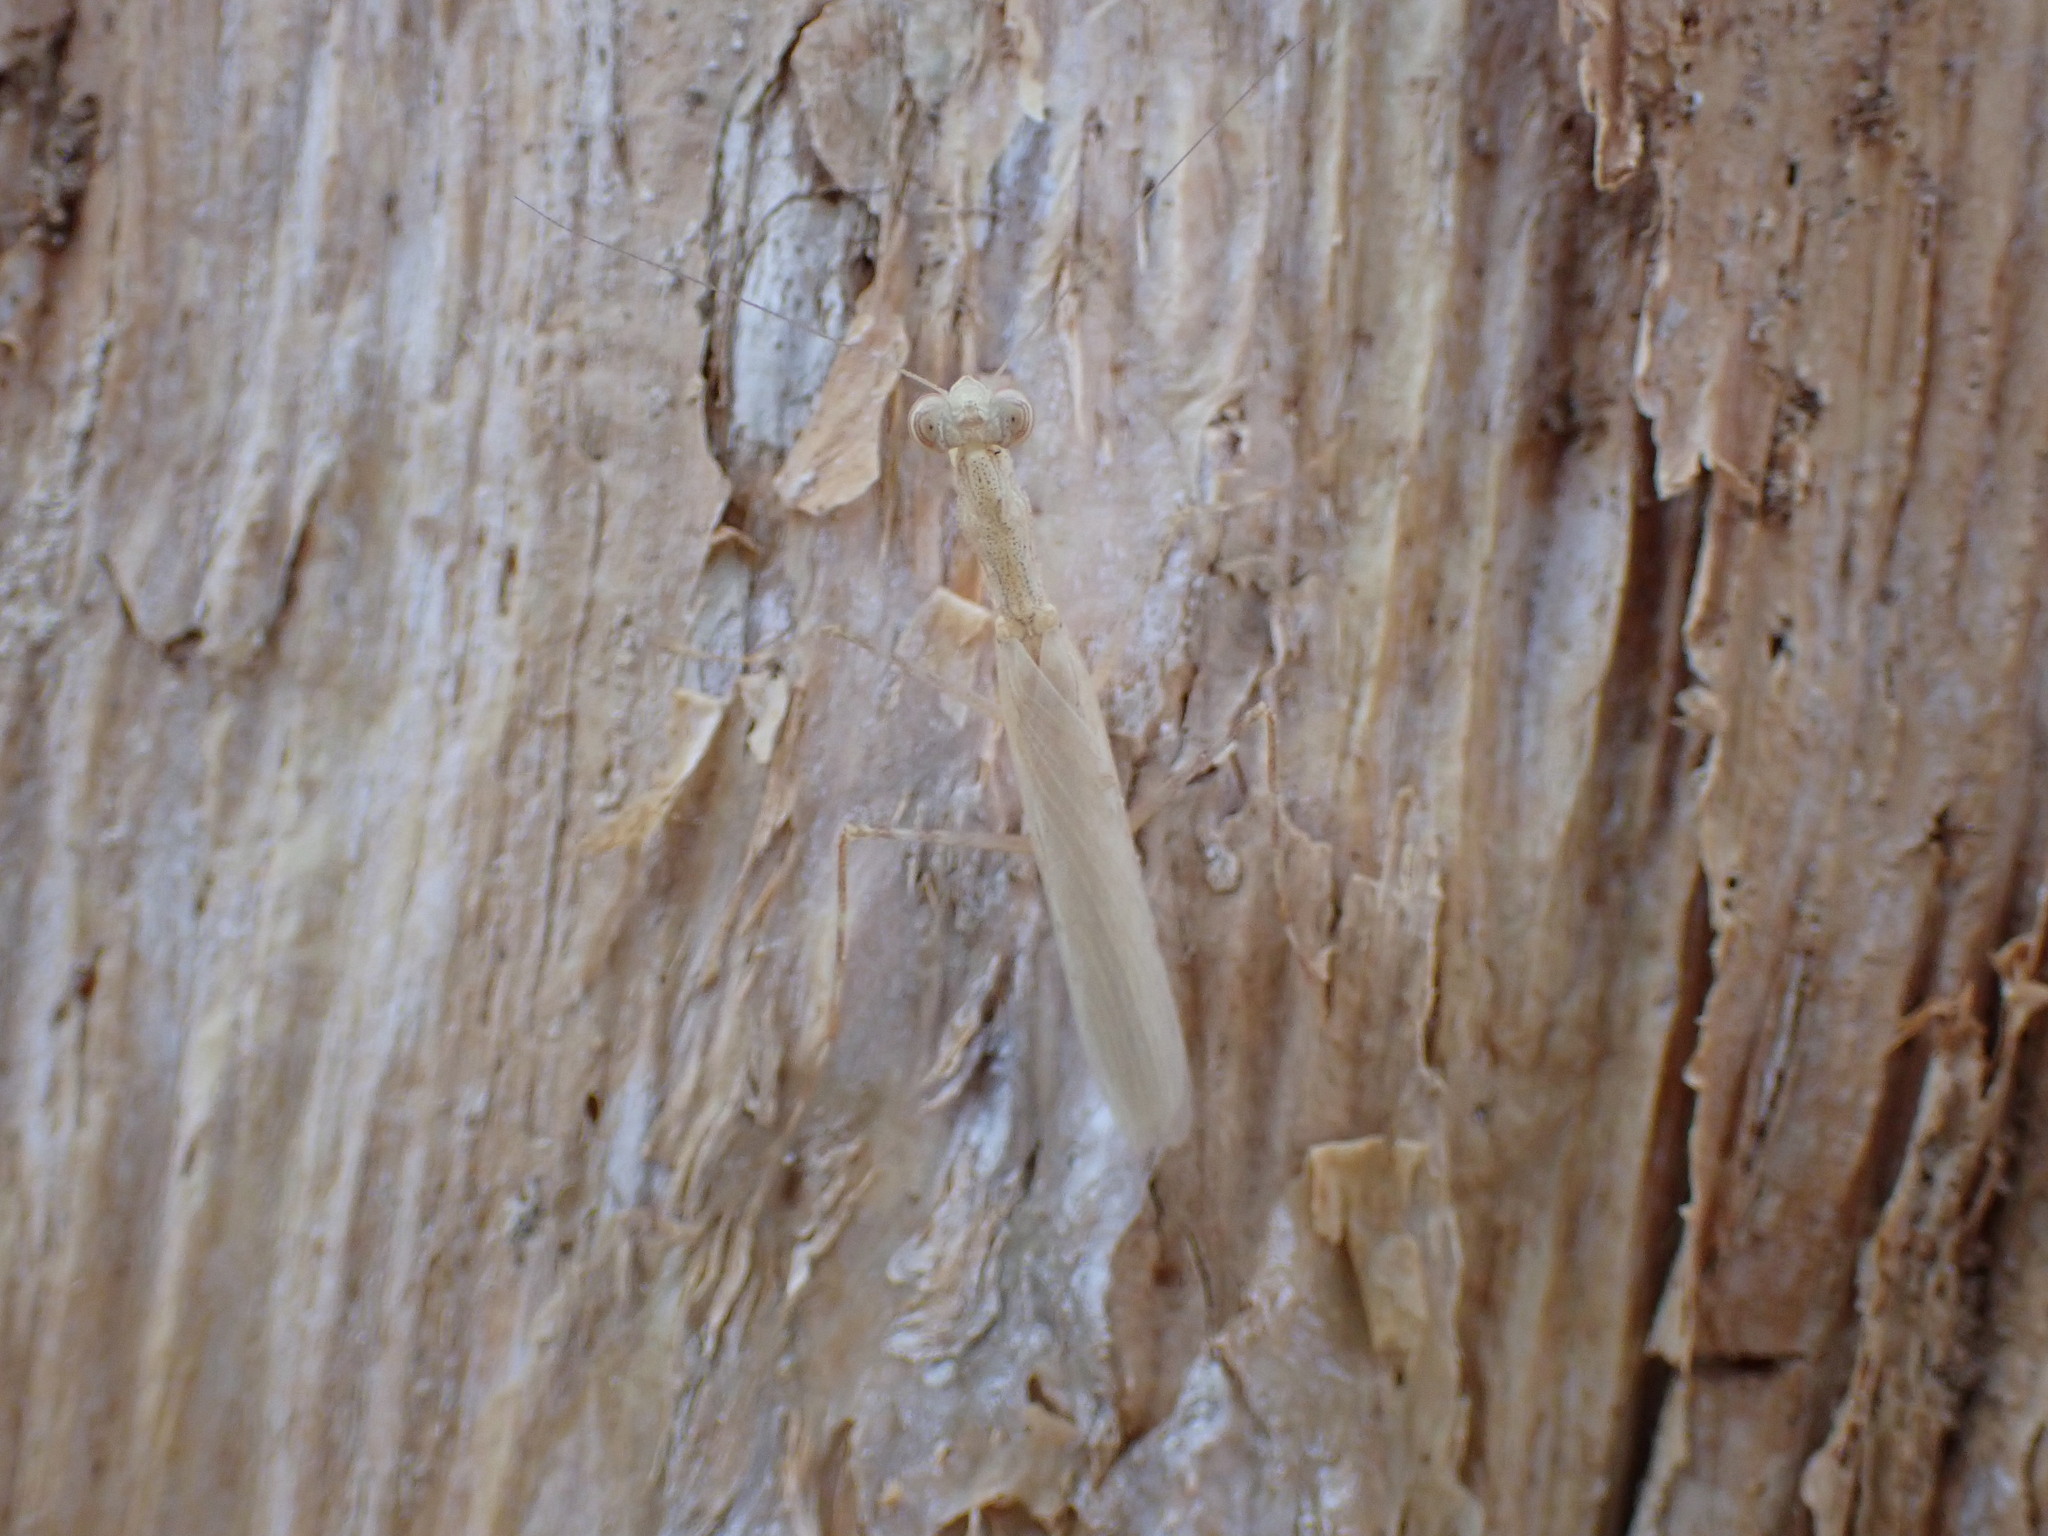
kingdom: Animalia
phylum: Arthropoda
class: Insecta
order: Mantodea
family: Nanomantidae
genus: Ima
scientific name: Ima fusca
